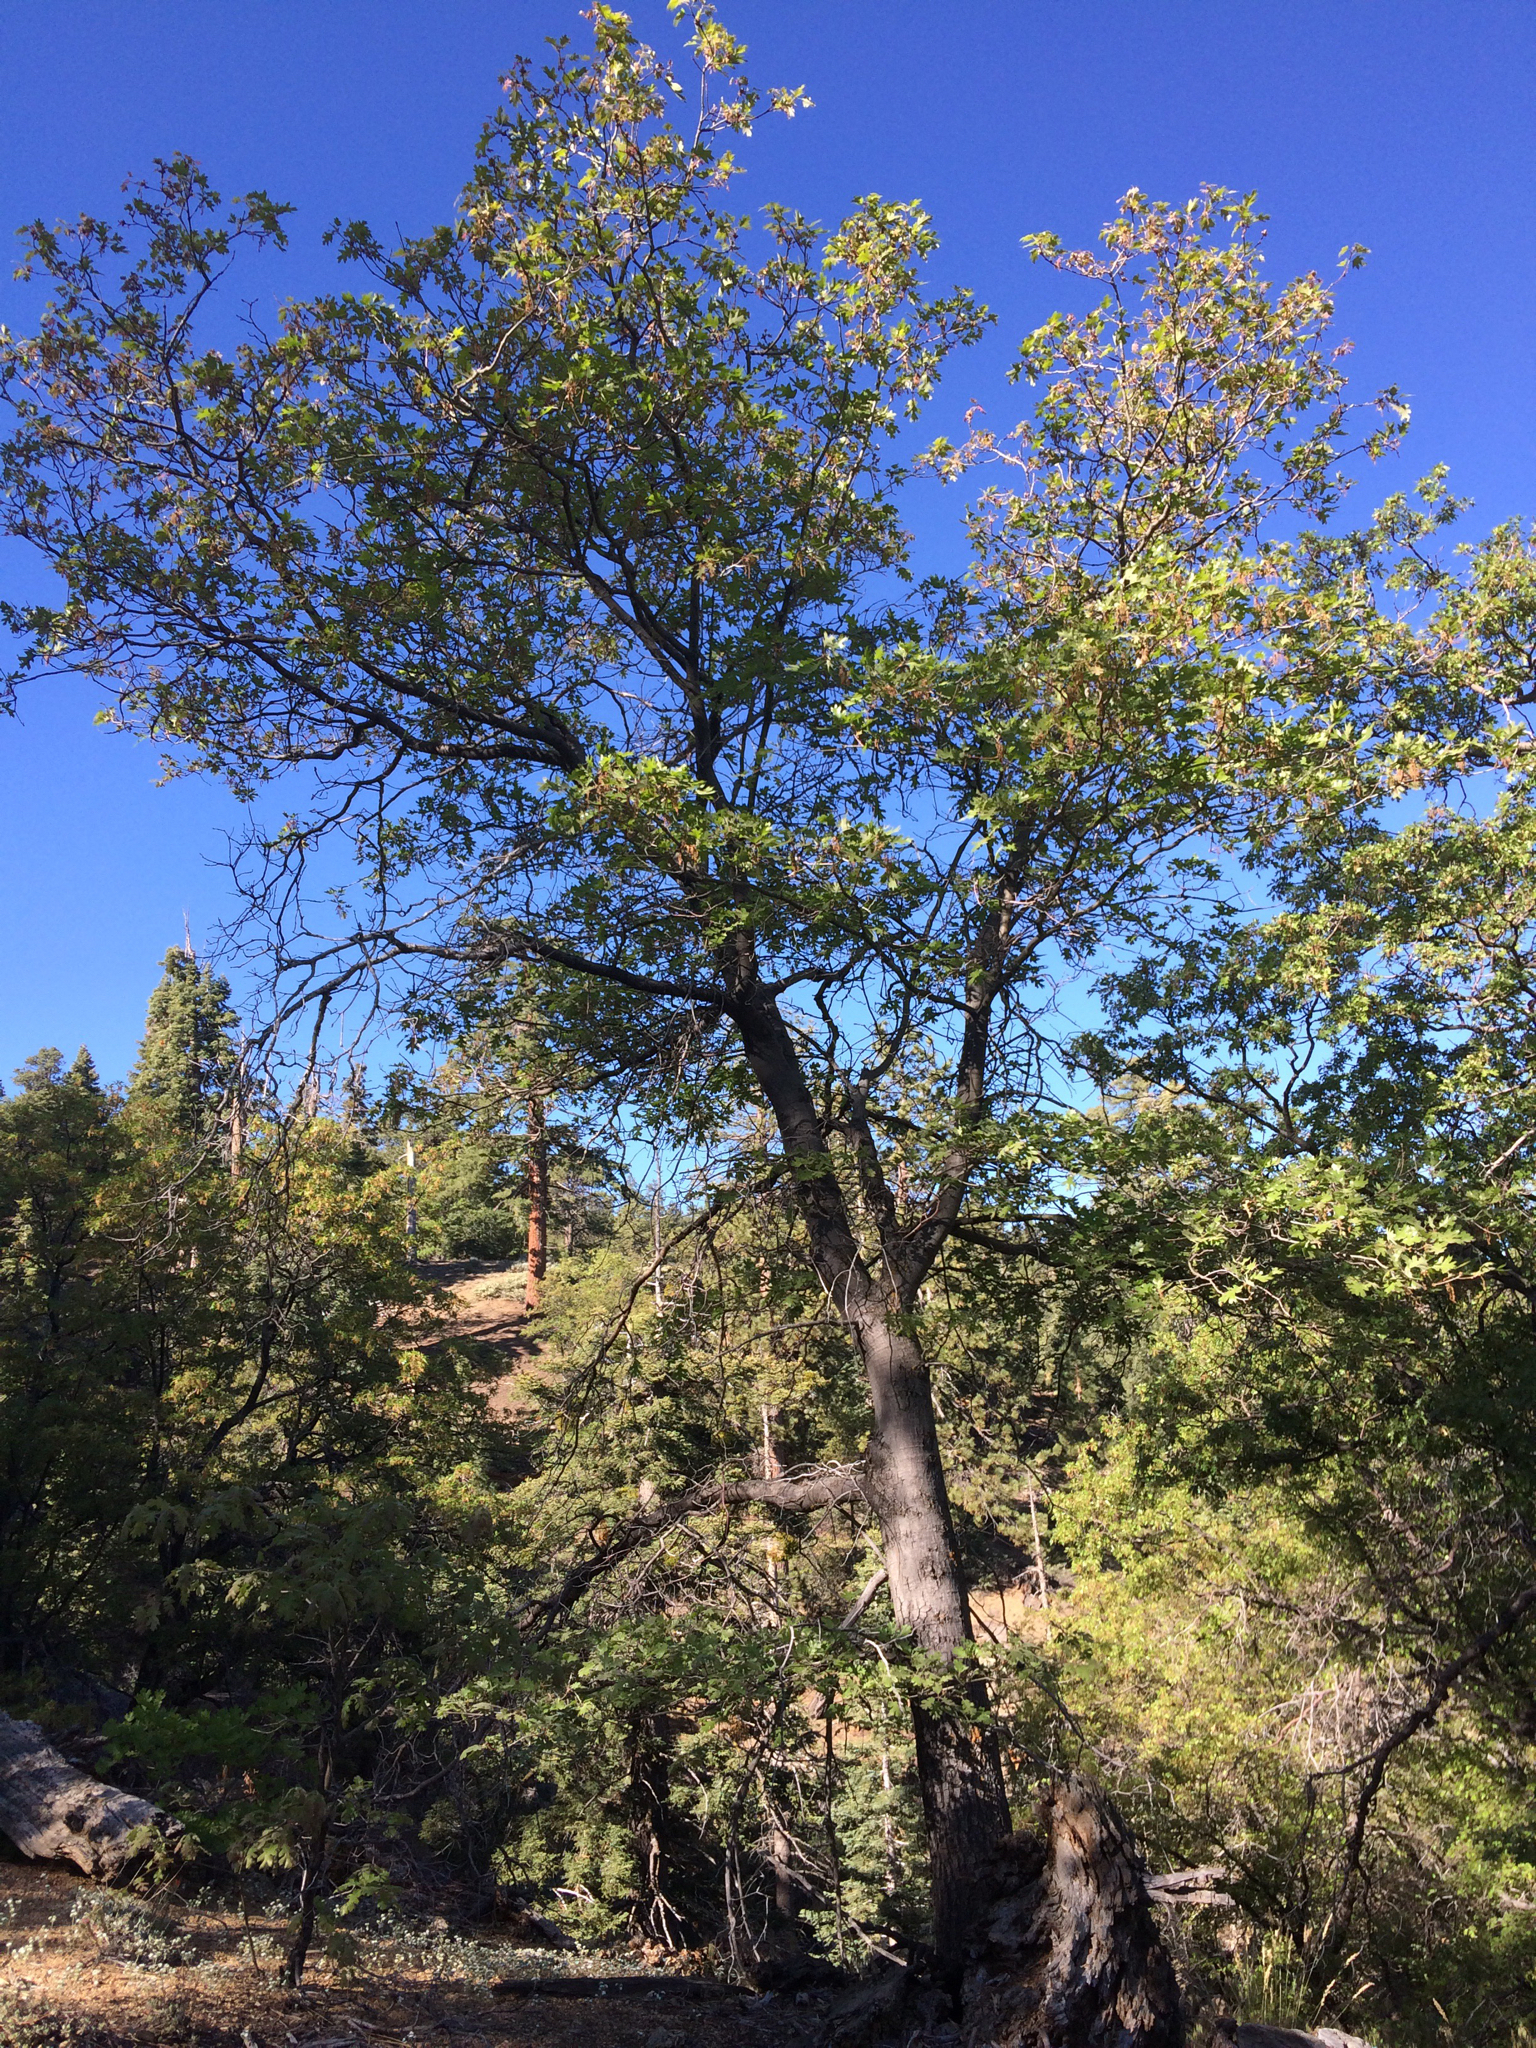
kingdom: Plantae
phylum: Tracheophyta
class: Magnoliopsida
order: Fagales
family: Fagaceae
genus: Quercus
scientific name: Quercus kelloggii
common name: California black oak
